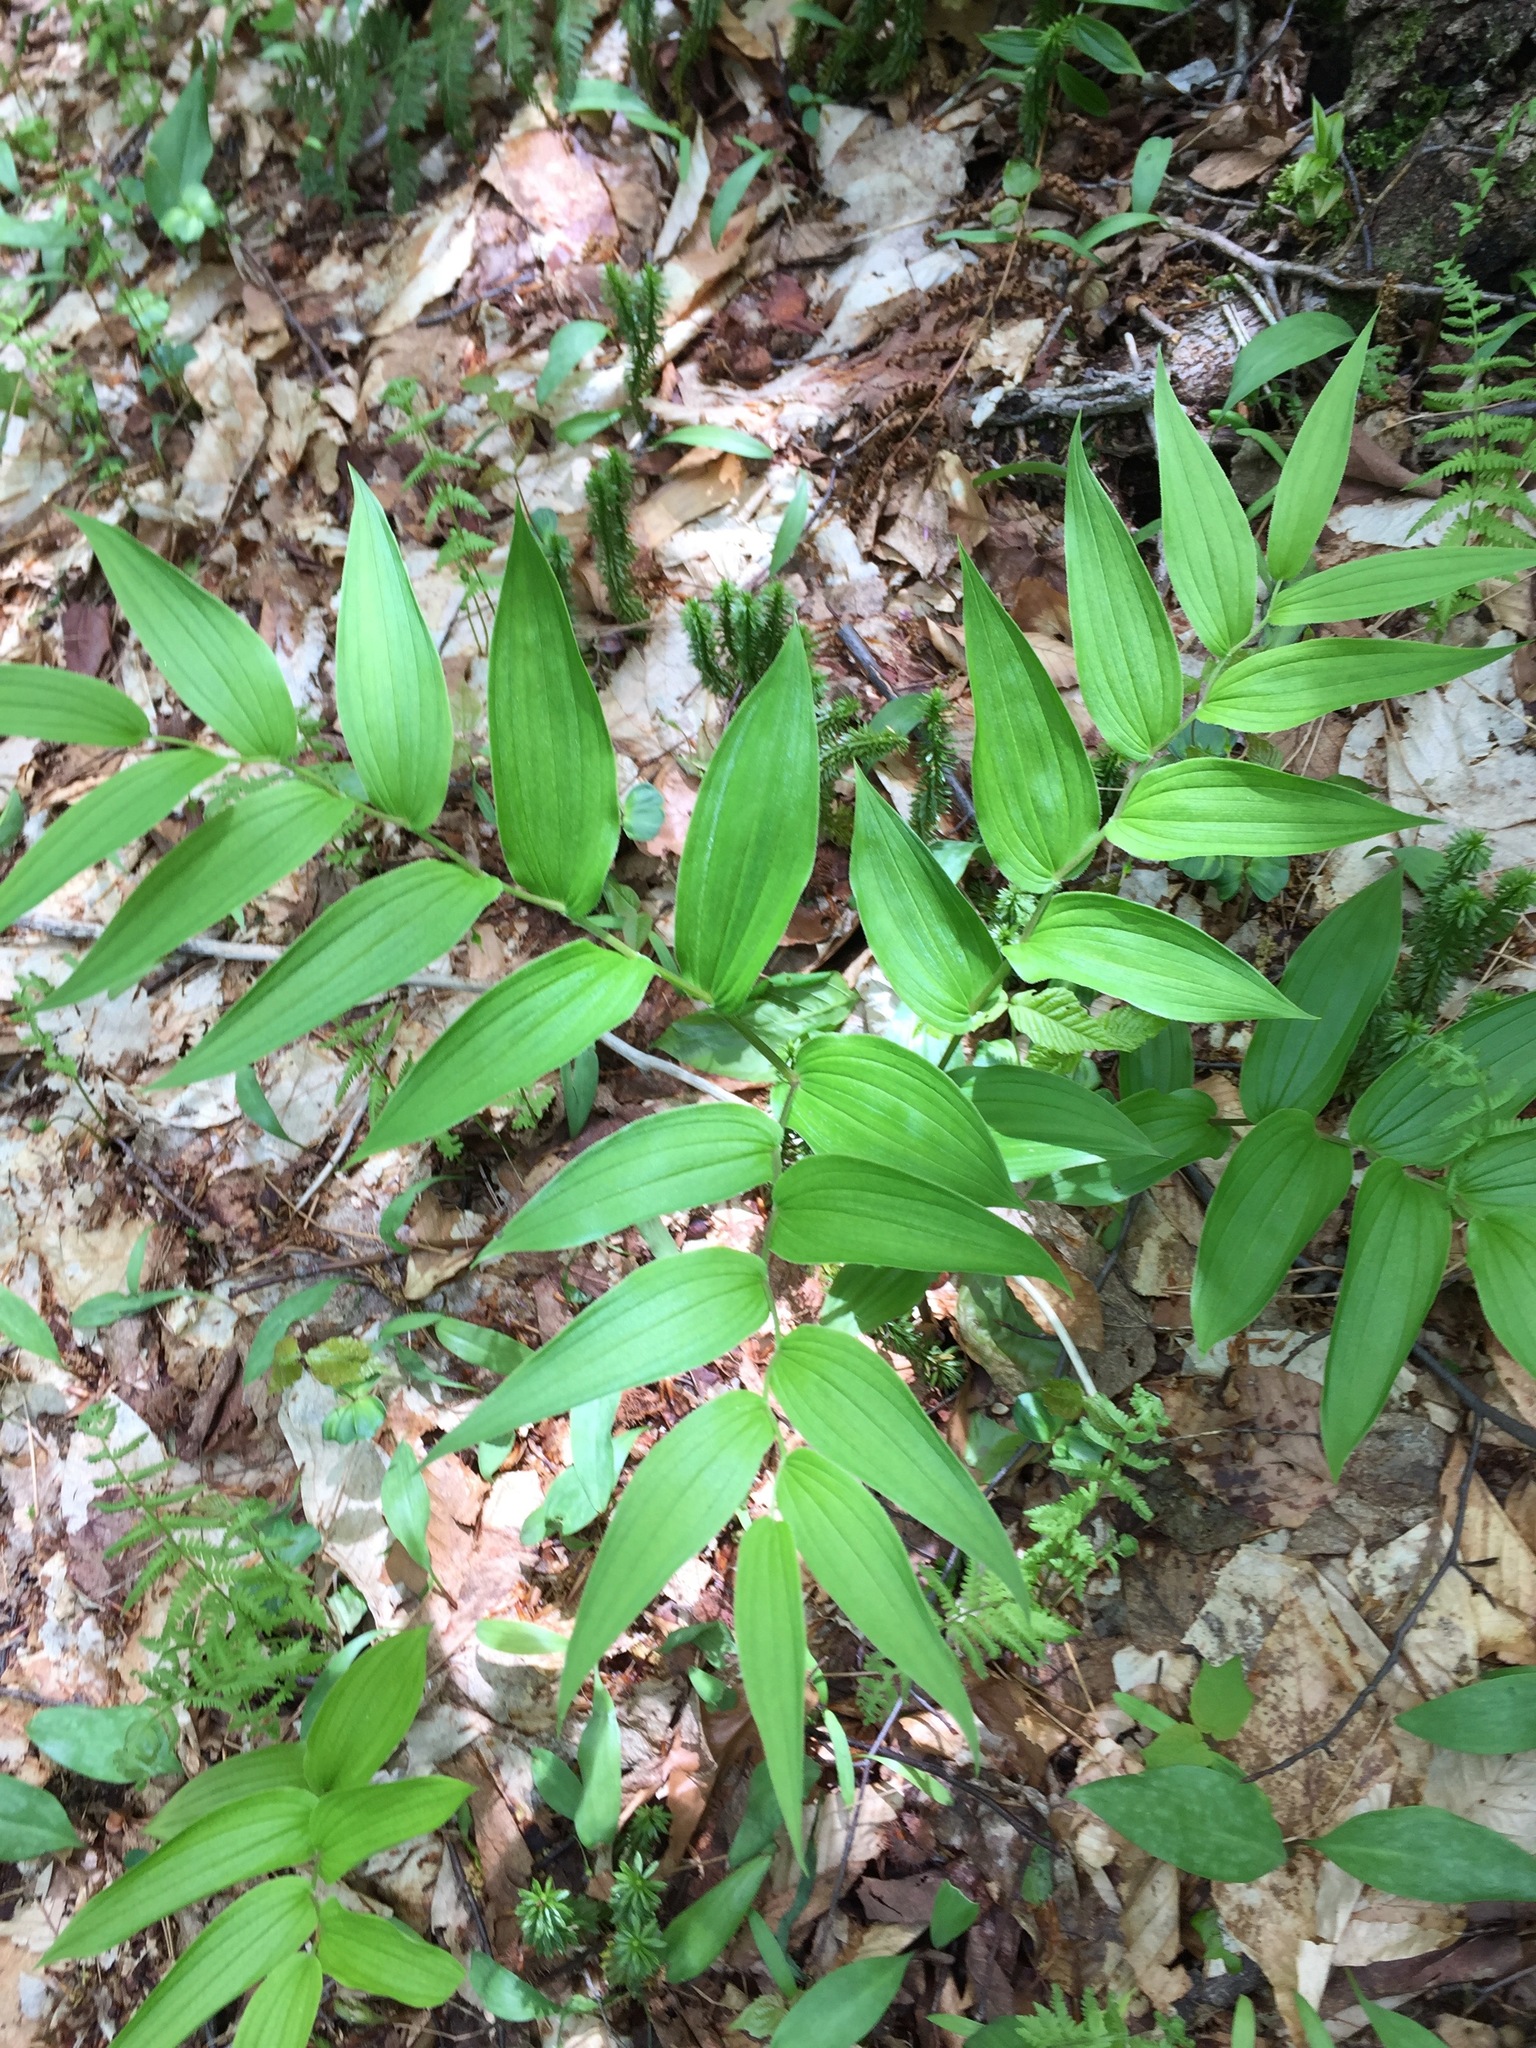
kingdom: Plantae
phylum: Tracheophyta
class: Liliopsida
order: Liliales
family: Liliaceae
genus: Streptopus
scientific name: Streptopus lanceolatus
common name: Rose mandarin
